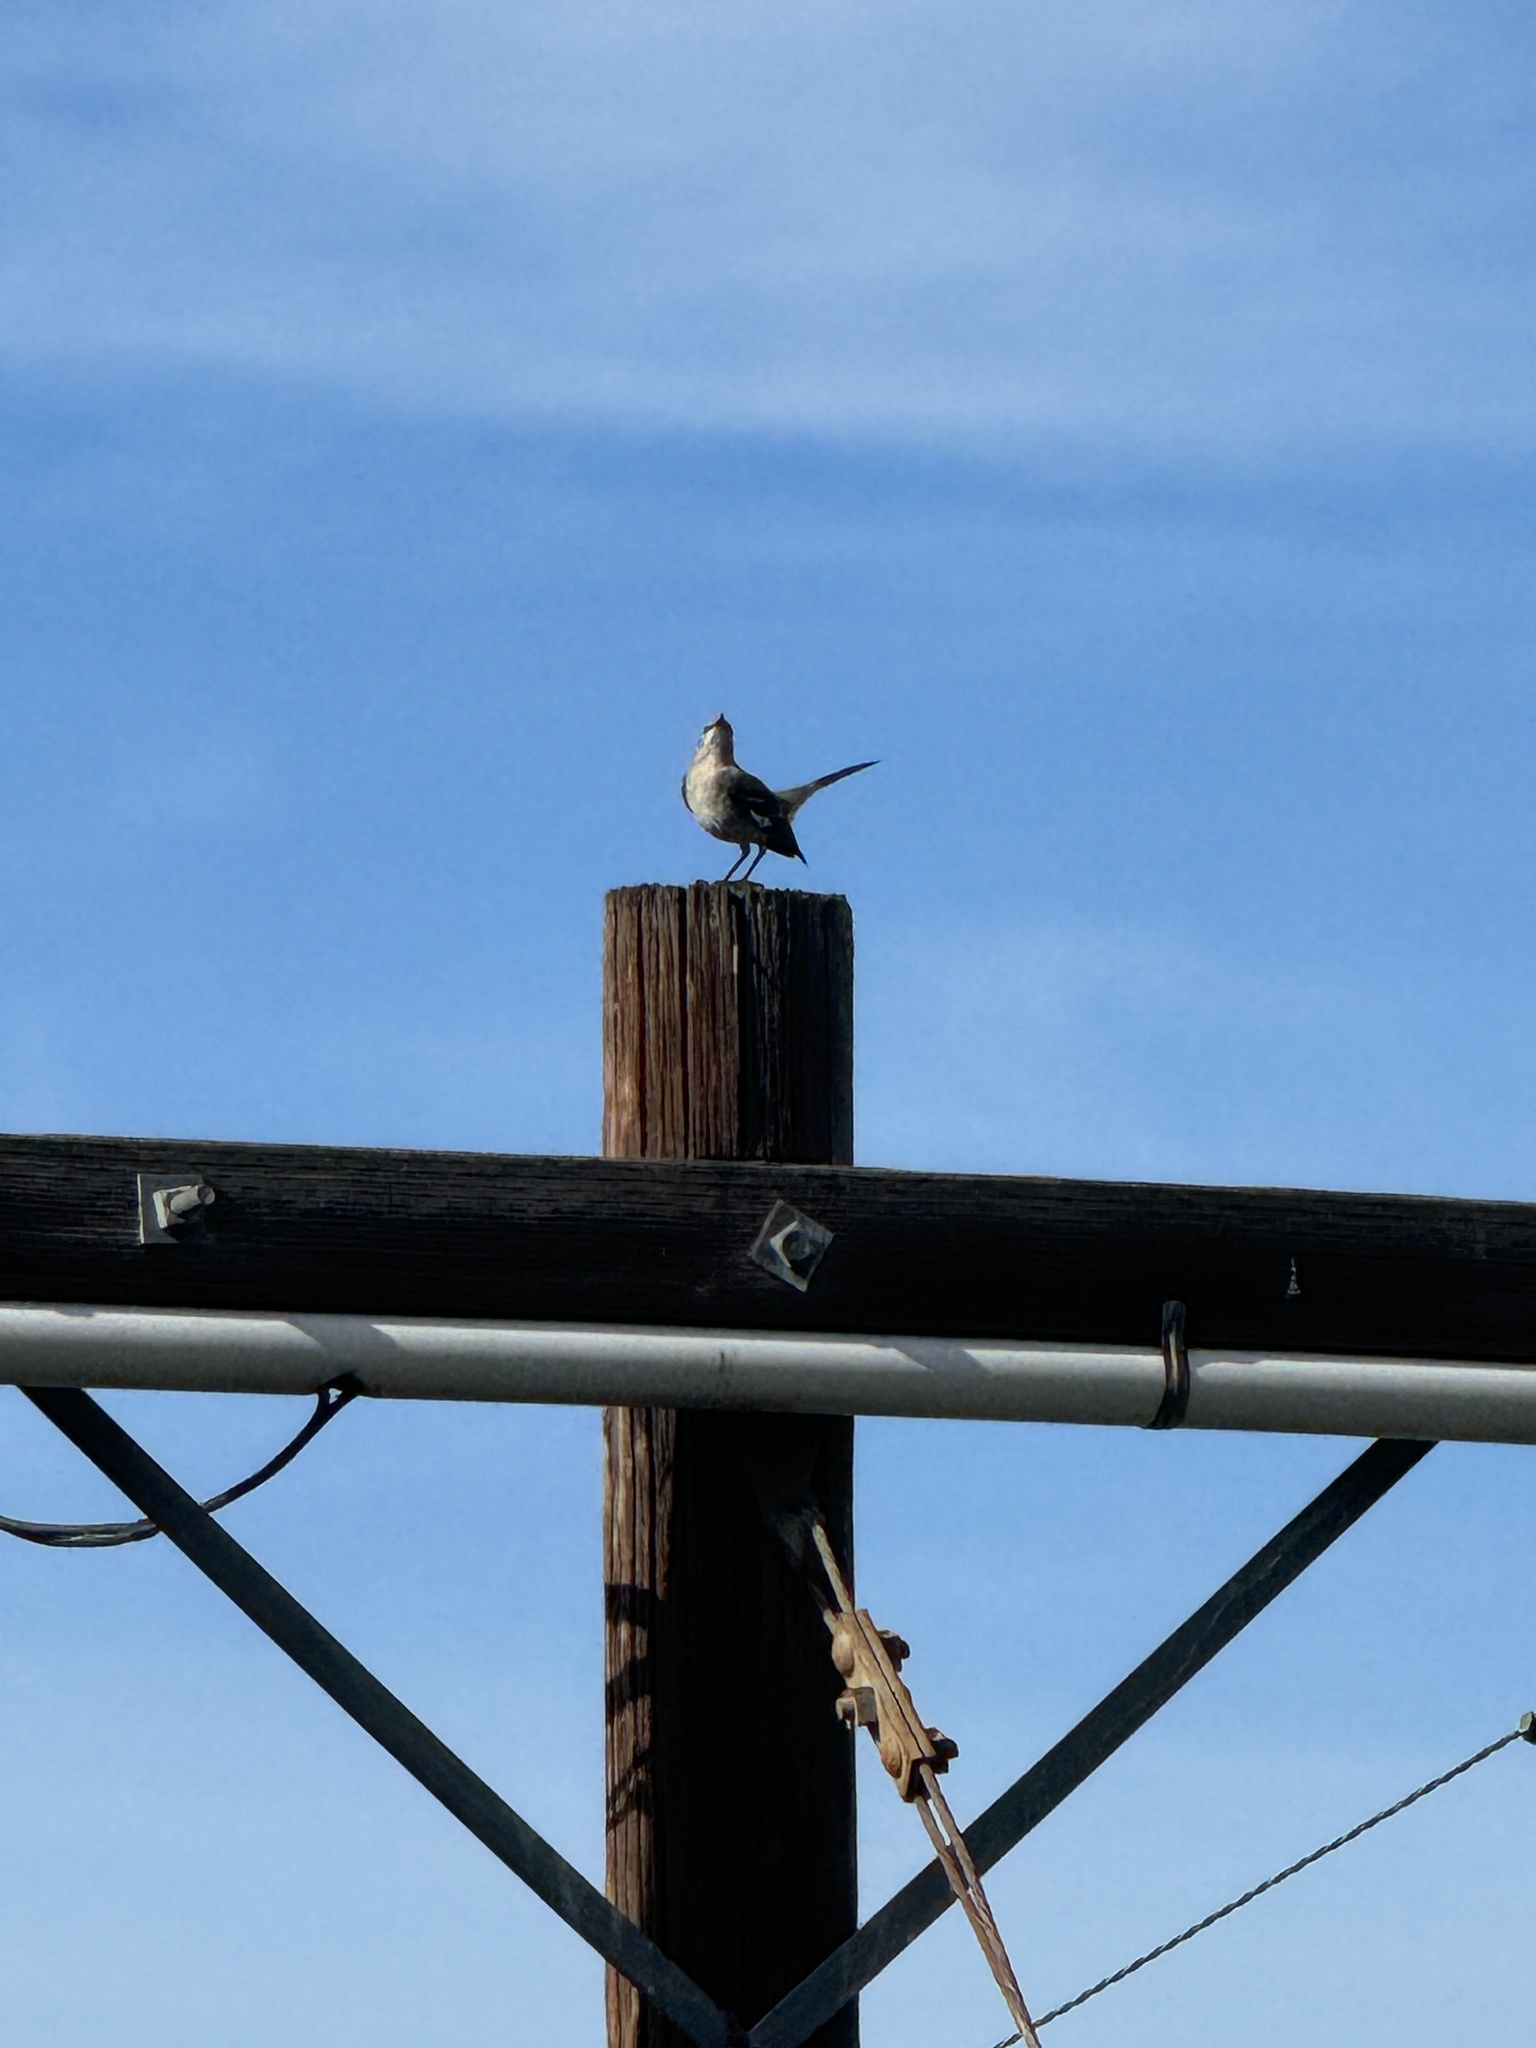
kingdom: Animalia
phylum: Chordata
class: Aves
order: Passeriformes
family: Mimidae
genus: Mimus
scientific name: Mimus polyglottos
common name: Northern mockingbird
